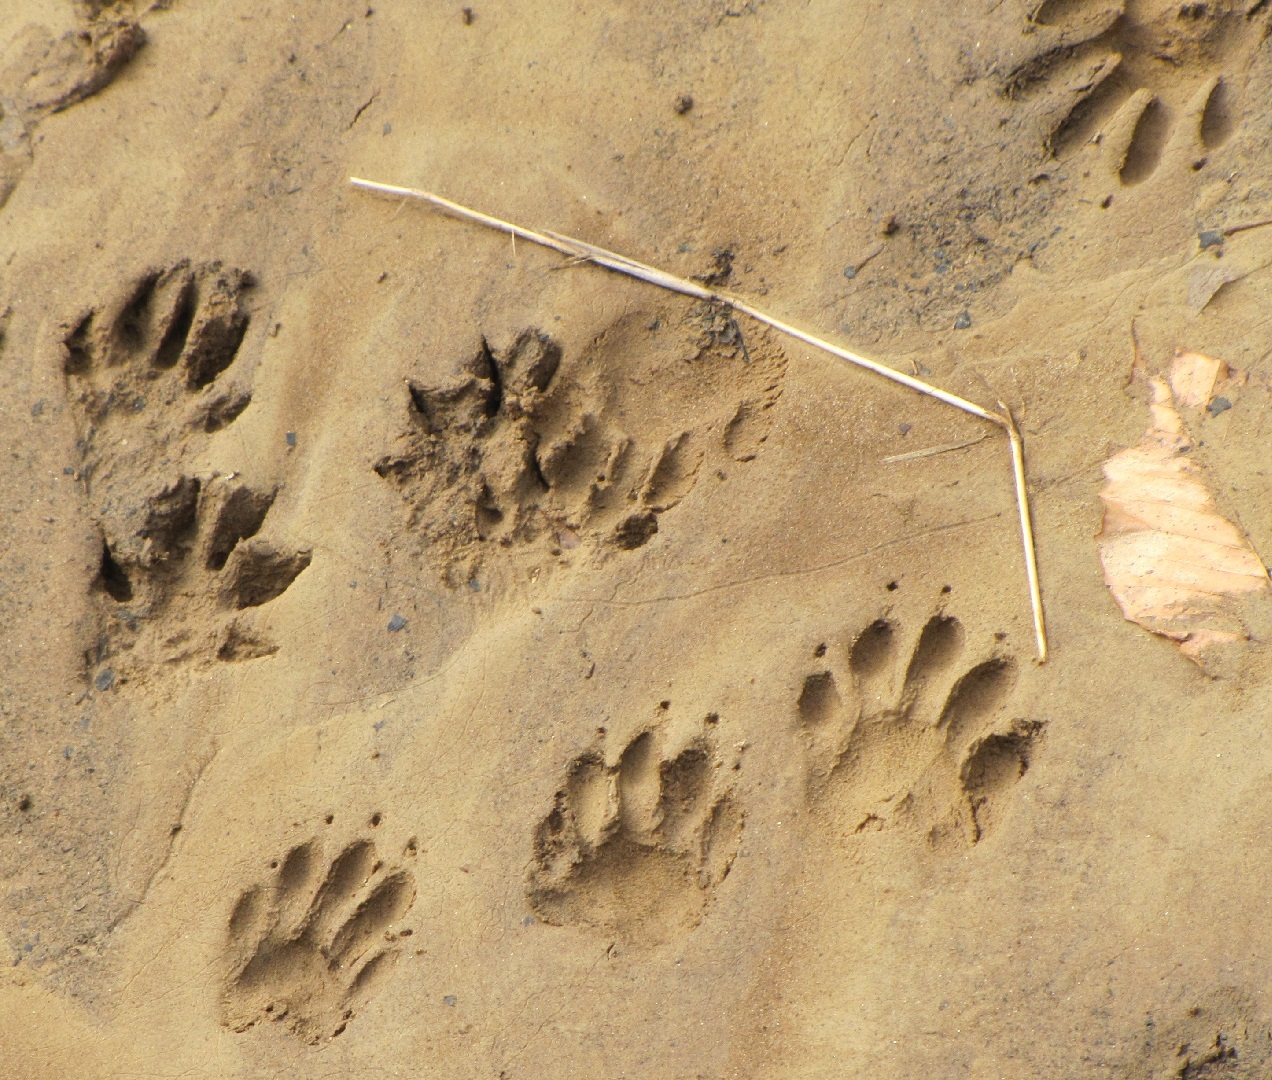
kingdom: Animalia
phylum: Chordata
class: Mammalia
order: Carnivora
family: Procyonidae
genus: Procyon
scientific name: Procyon lotor
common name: Raccoon
